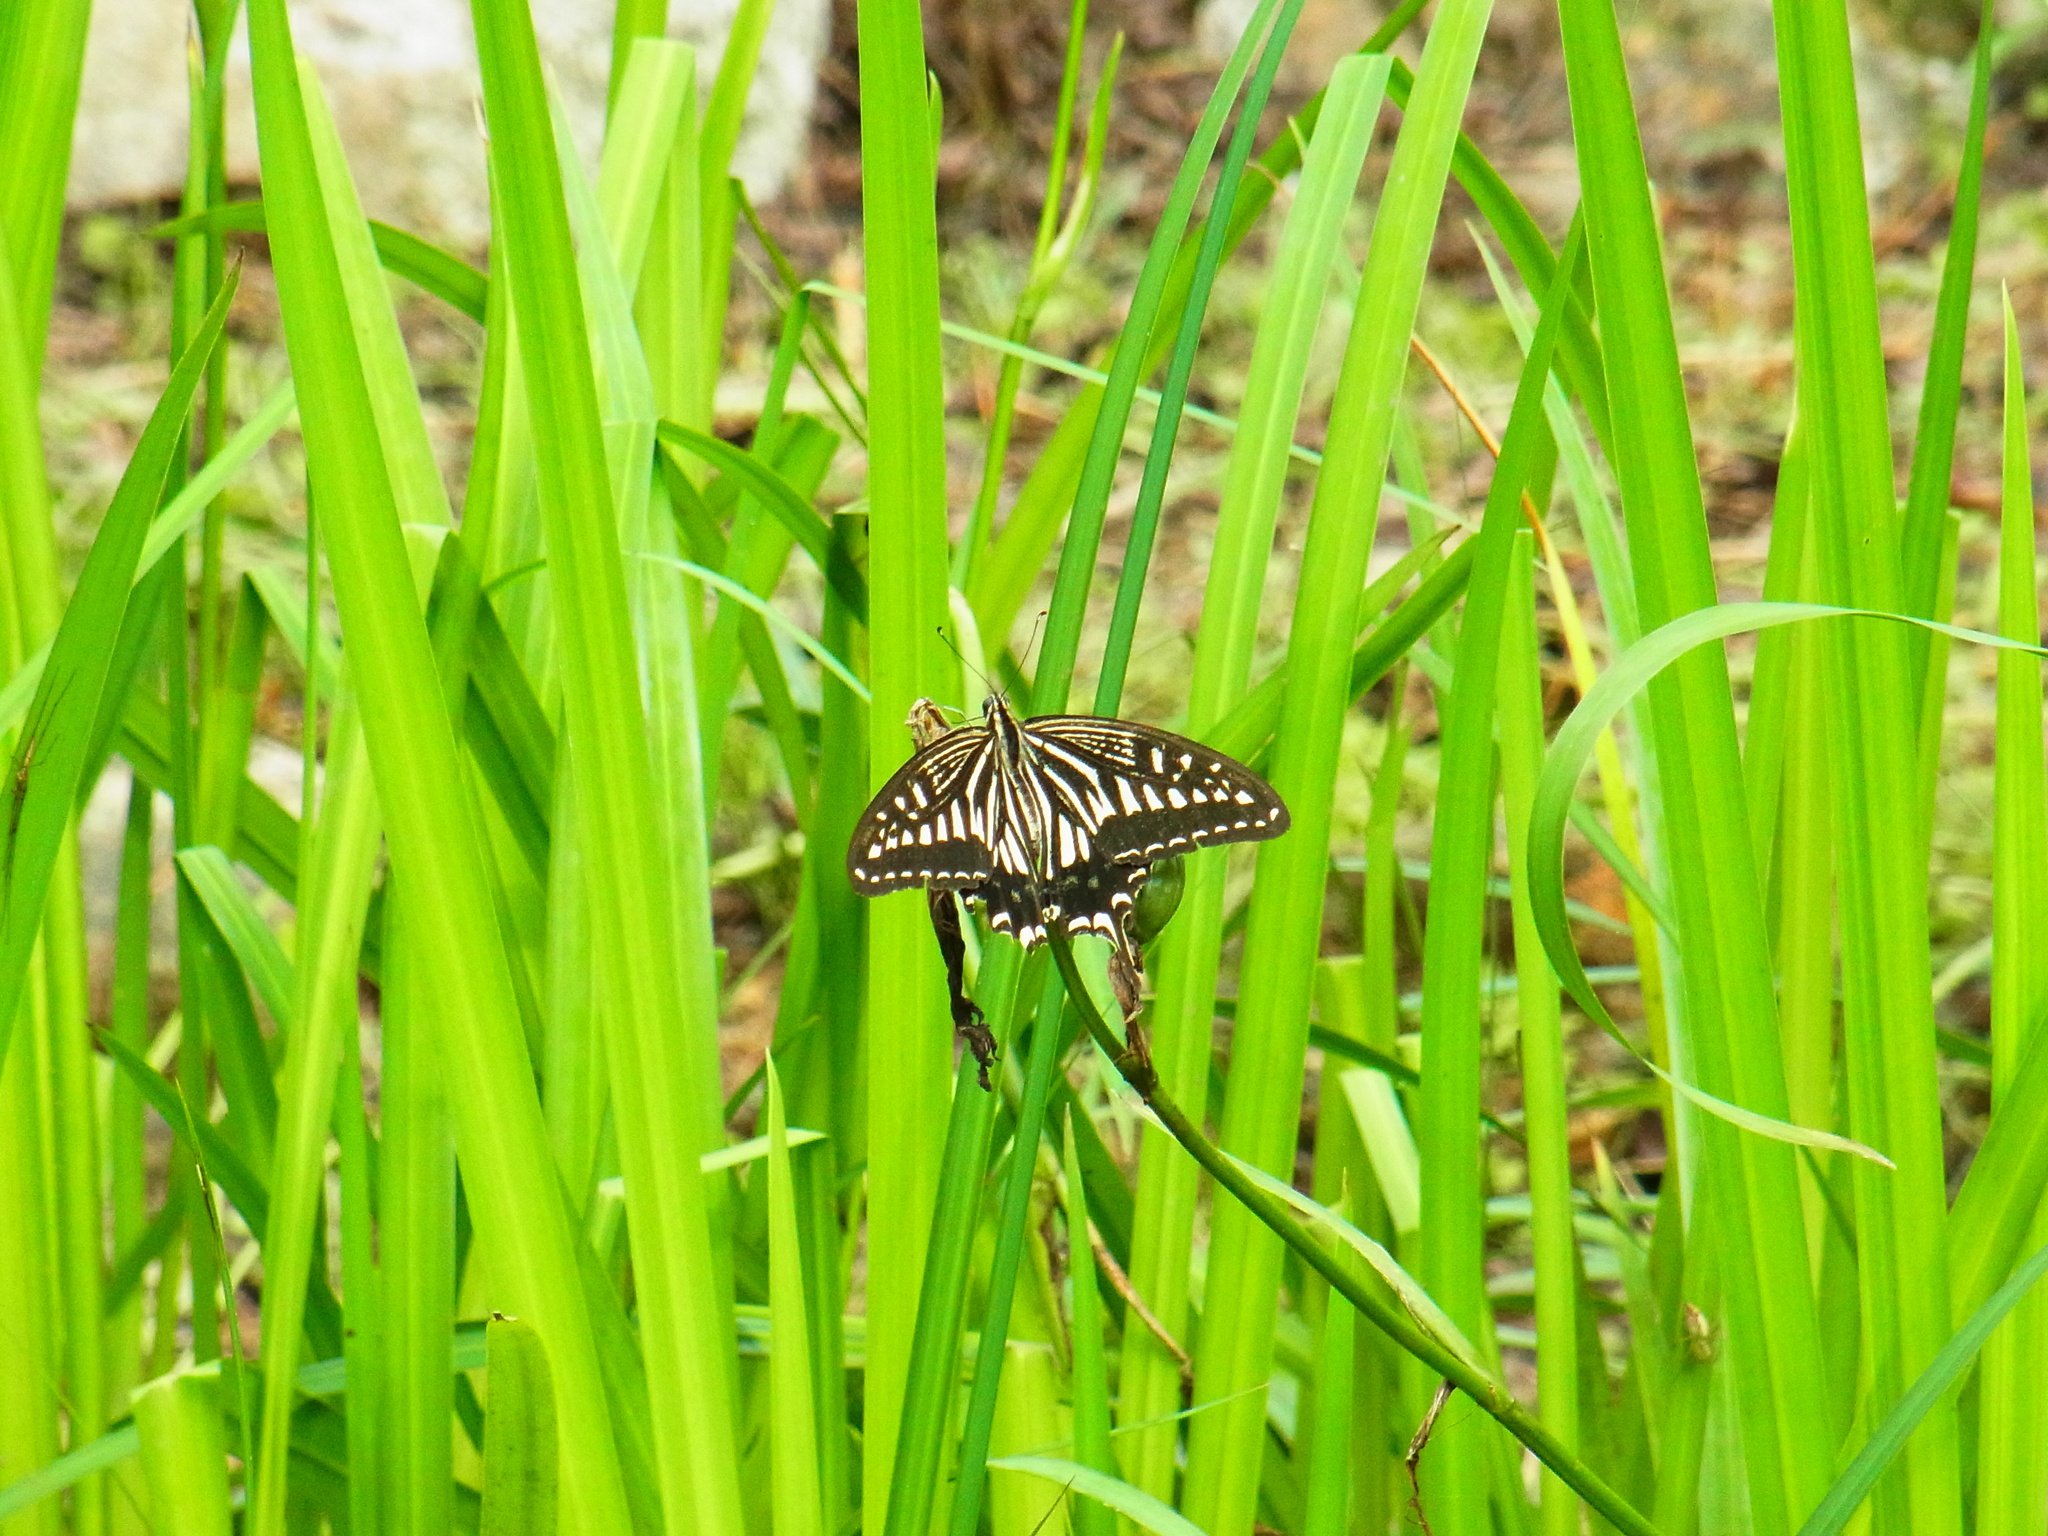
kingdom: Animalia
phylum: Arthropoda
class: Insecta
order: Lepidoptera
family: Papilionidae
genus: Papilio
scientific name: Papilio xuthus
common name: Asian swallowtail
